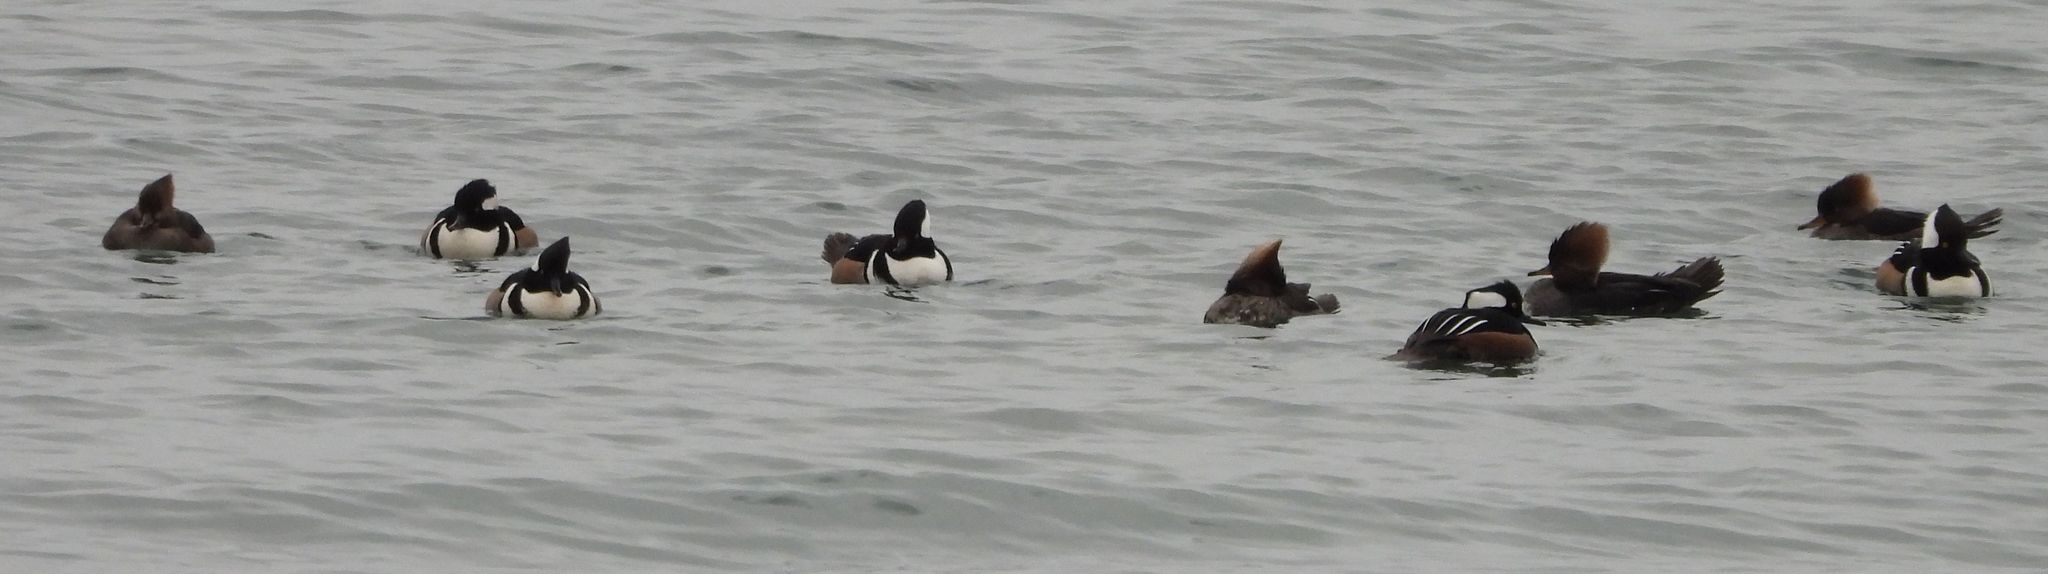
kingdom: Animalia
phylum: Chordata
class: Aves
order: Anseriformes
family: Anatidae
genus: Lophodytes
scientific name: Lophodytes cucullatus
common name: Hooded merganser
